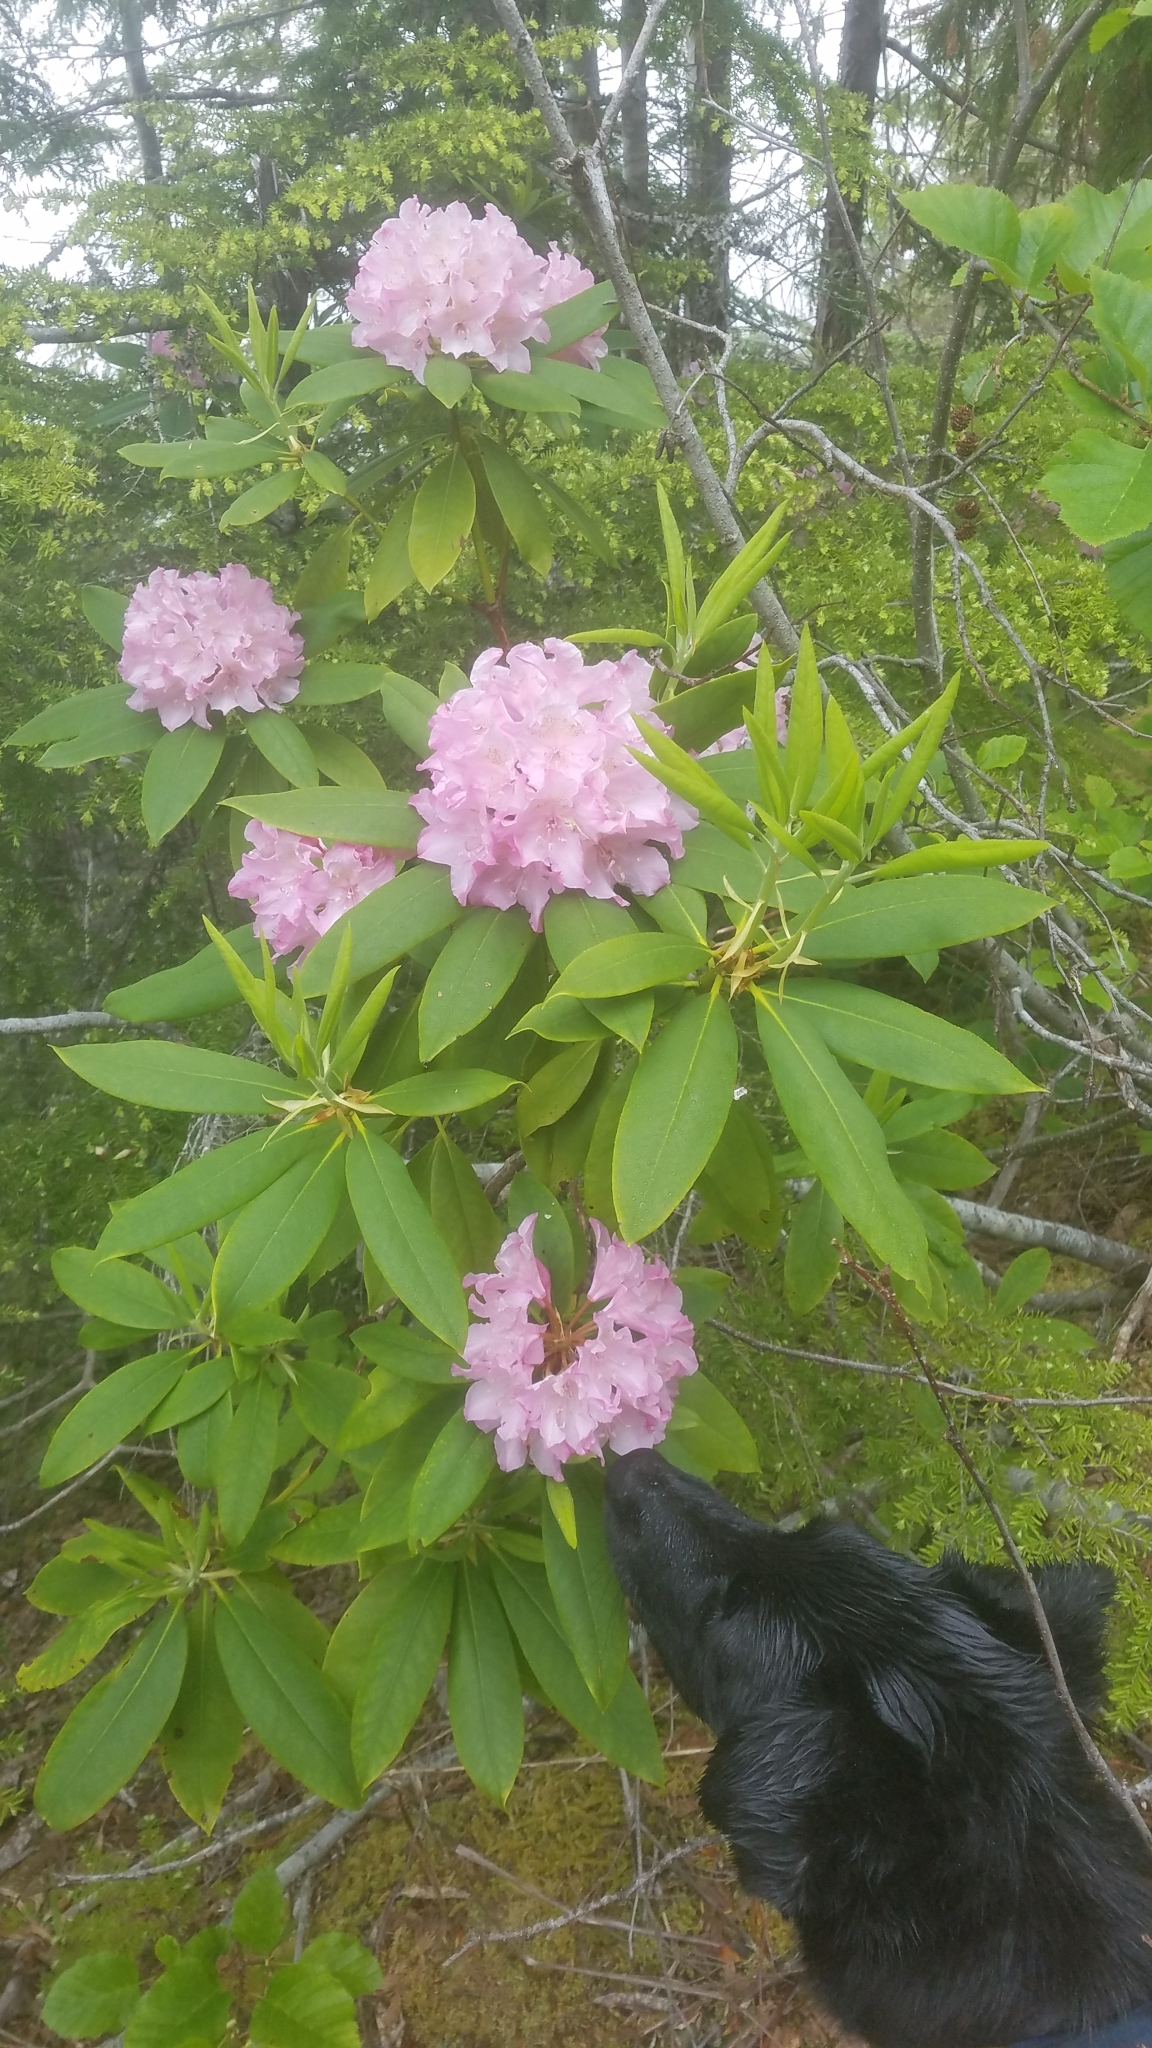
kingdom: Plantae
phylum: Tracheophyta
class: Magnoliopsida
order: Ericales
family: Ericaceae
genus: Rhododendron
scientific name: Rhododendron macrophyllum
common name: California rose bay
